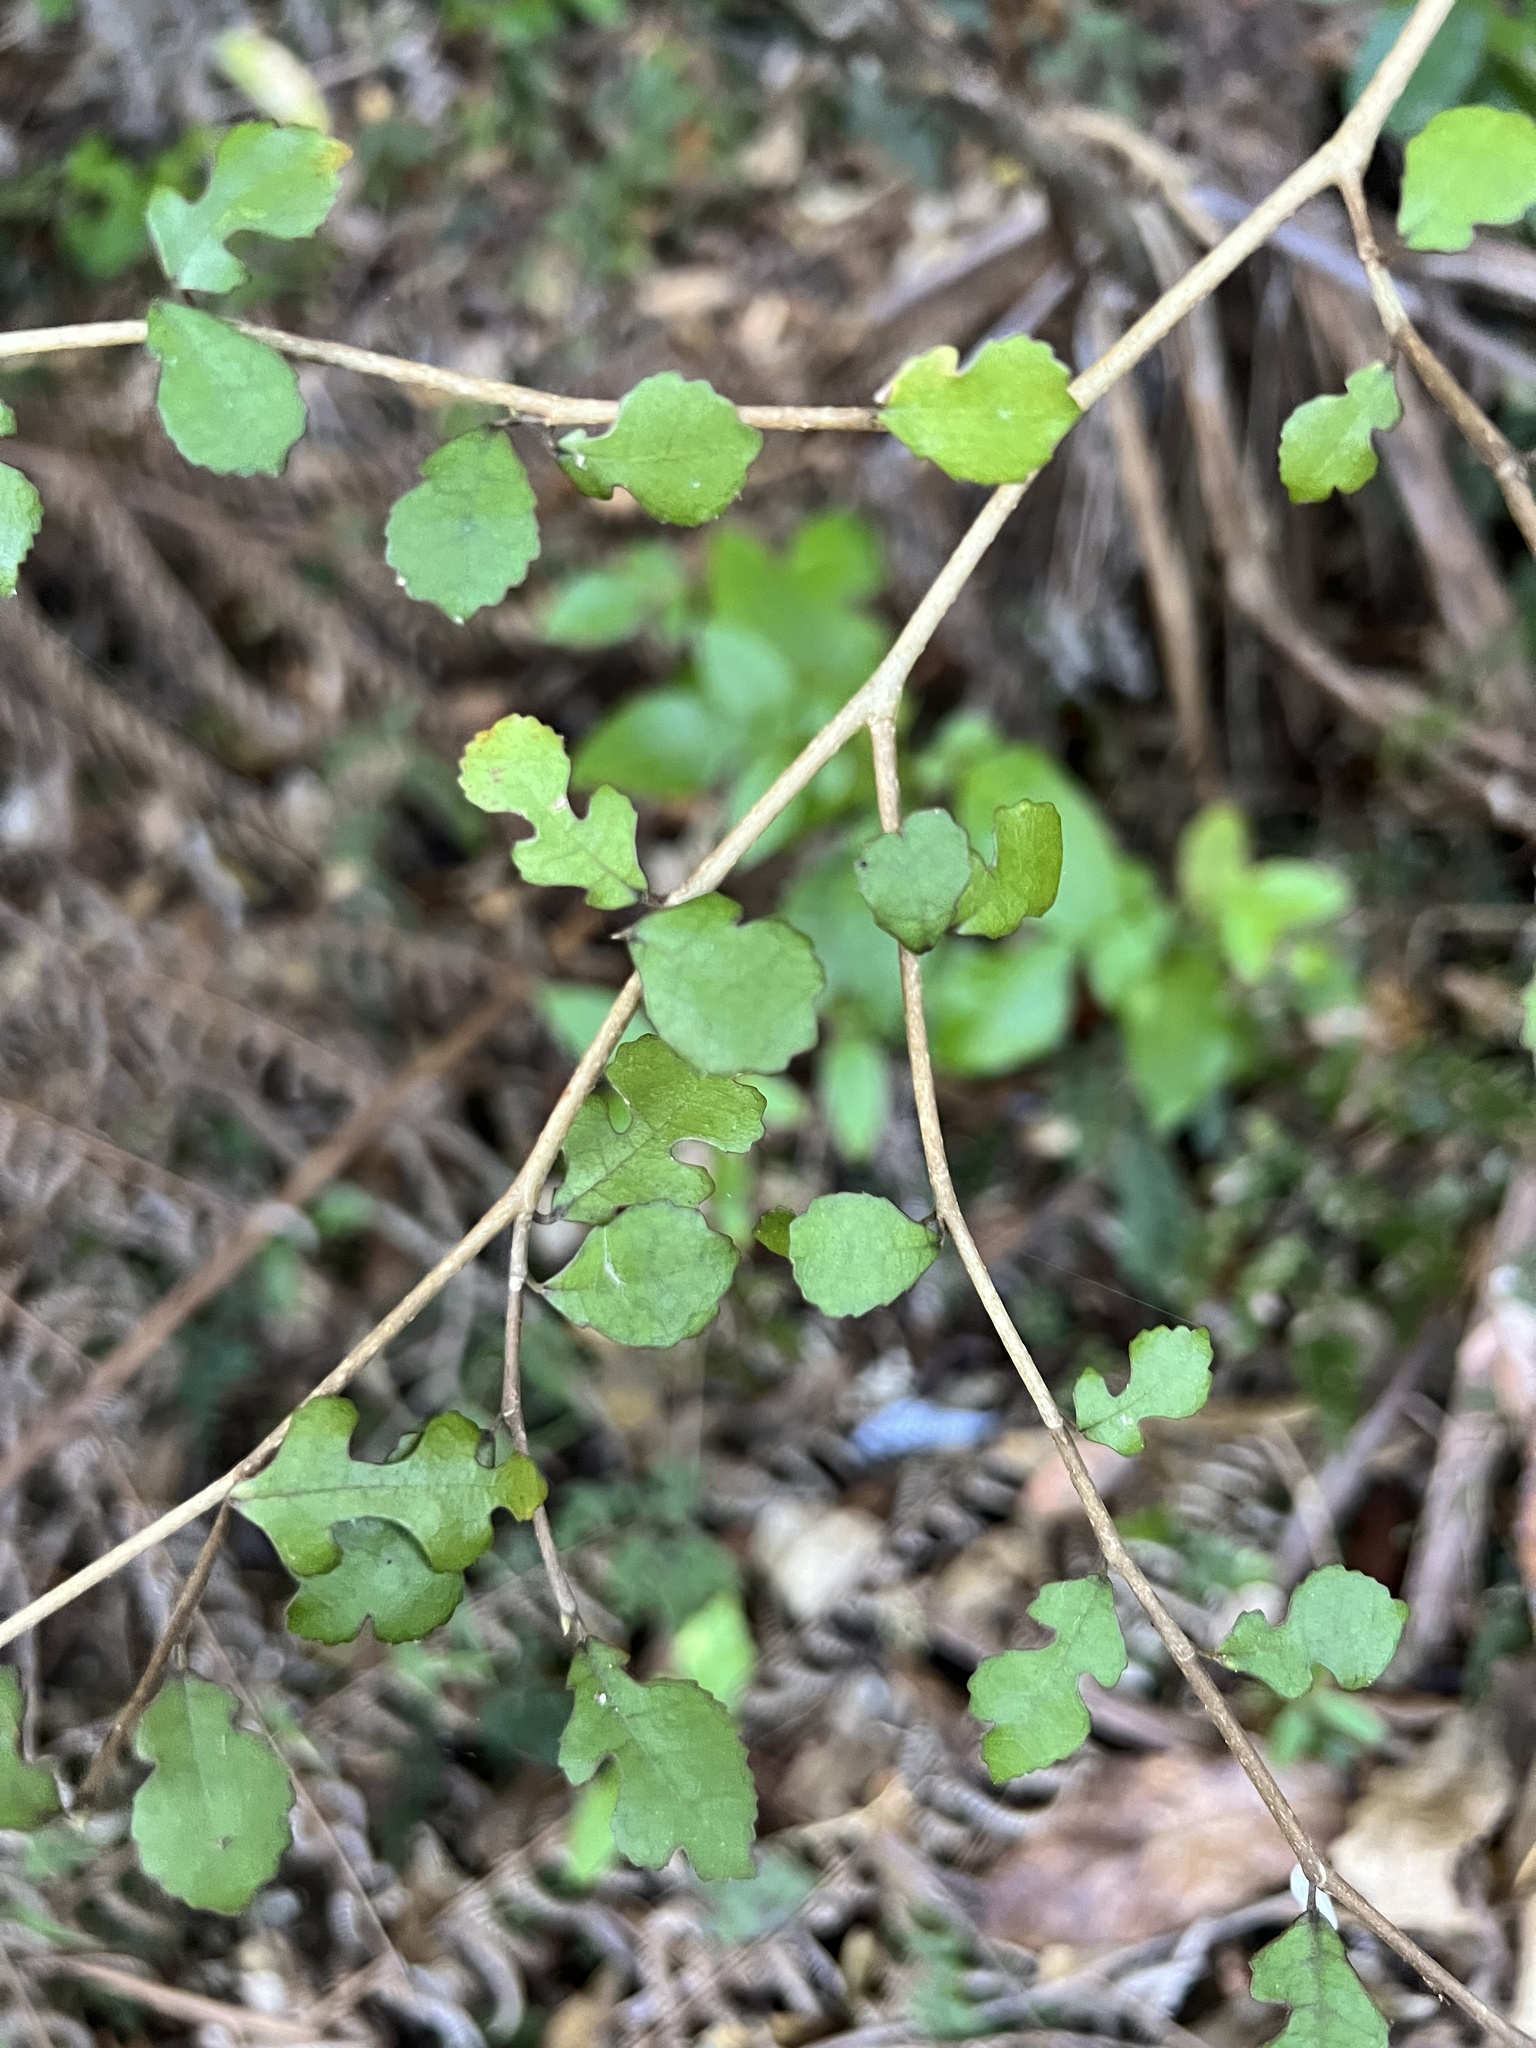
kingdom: Plantae
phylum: Tracheophyta
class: Magnoliopsida
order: Rosales
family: Moraceae
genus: Paratrophis
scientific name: Paratrophis microphylla
